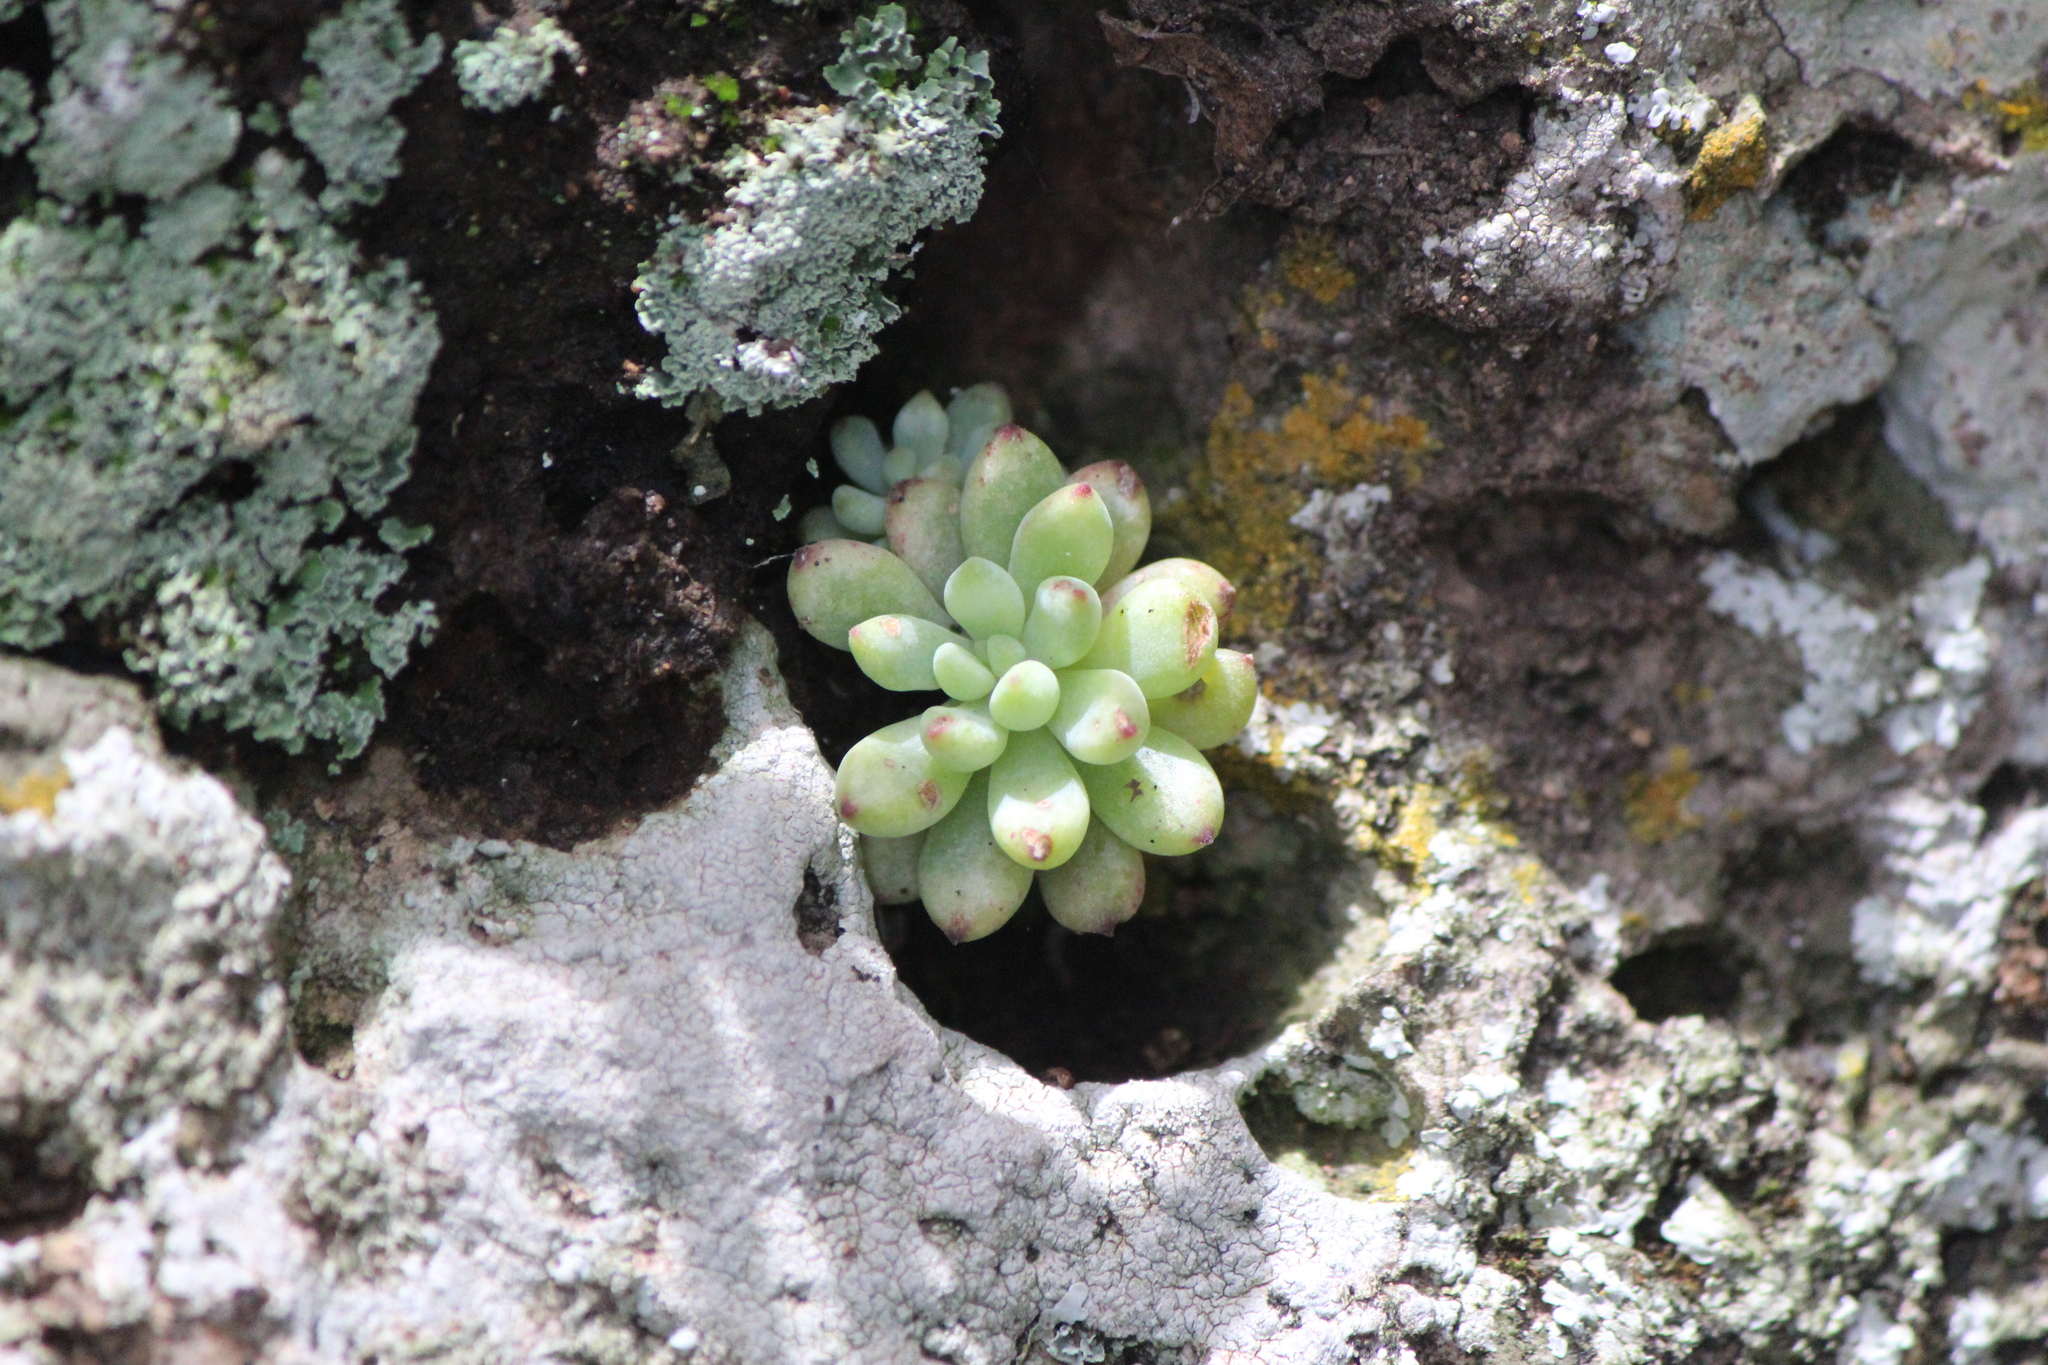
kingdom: Plantae
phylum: Tracheophyta
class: Magnoliopsida
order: Saxifragales
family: Crassulaceae
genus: Graptopetalum
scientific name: Graptopetalum pachyphyllum
